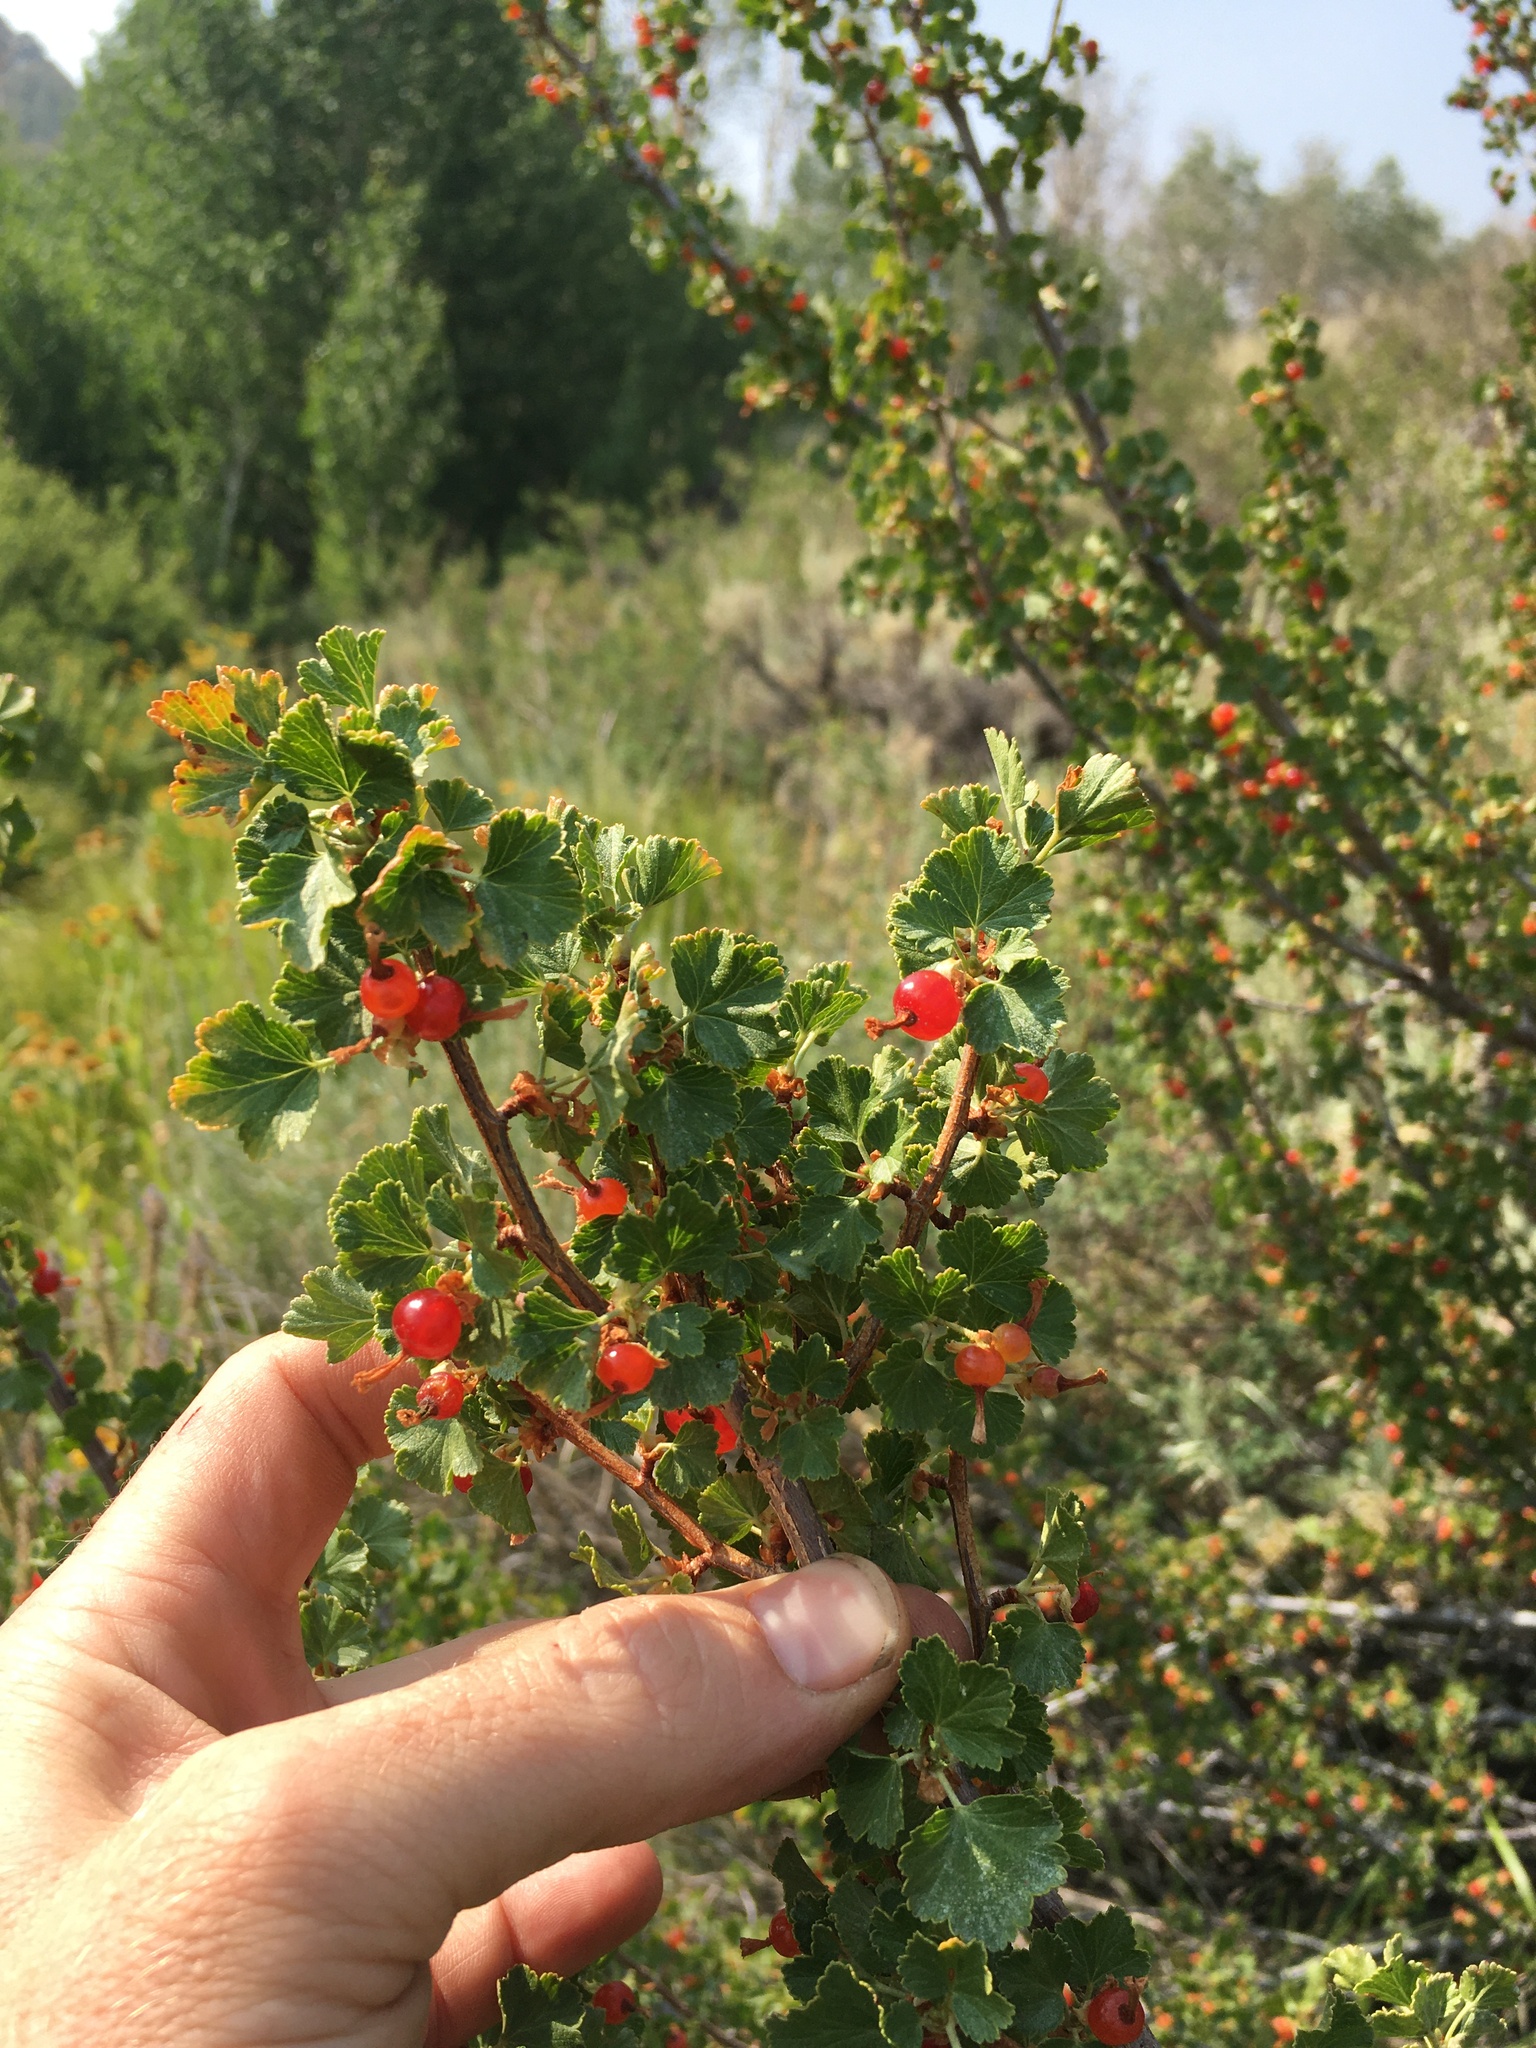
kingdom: Plantae
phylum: Tracheophyta
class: Magnoliopsida
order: Saxifragales
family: Grossulariaceae
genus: Ribes
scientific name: Ribes cereum
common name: Wax currant
